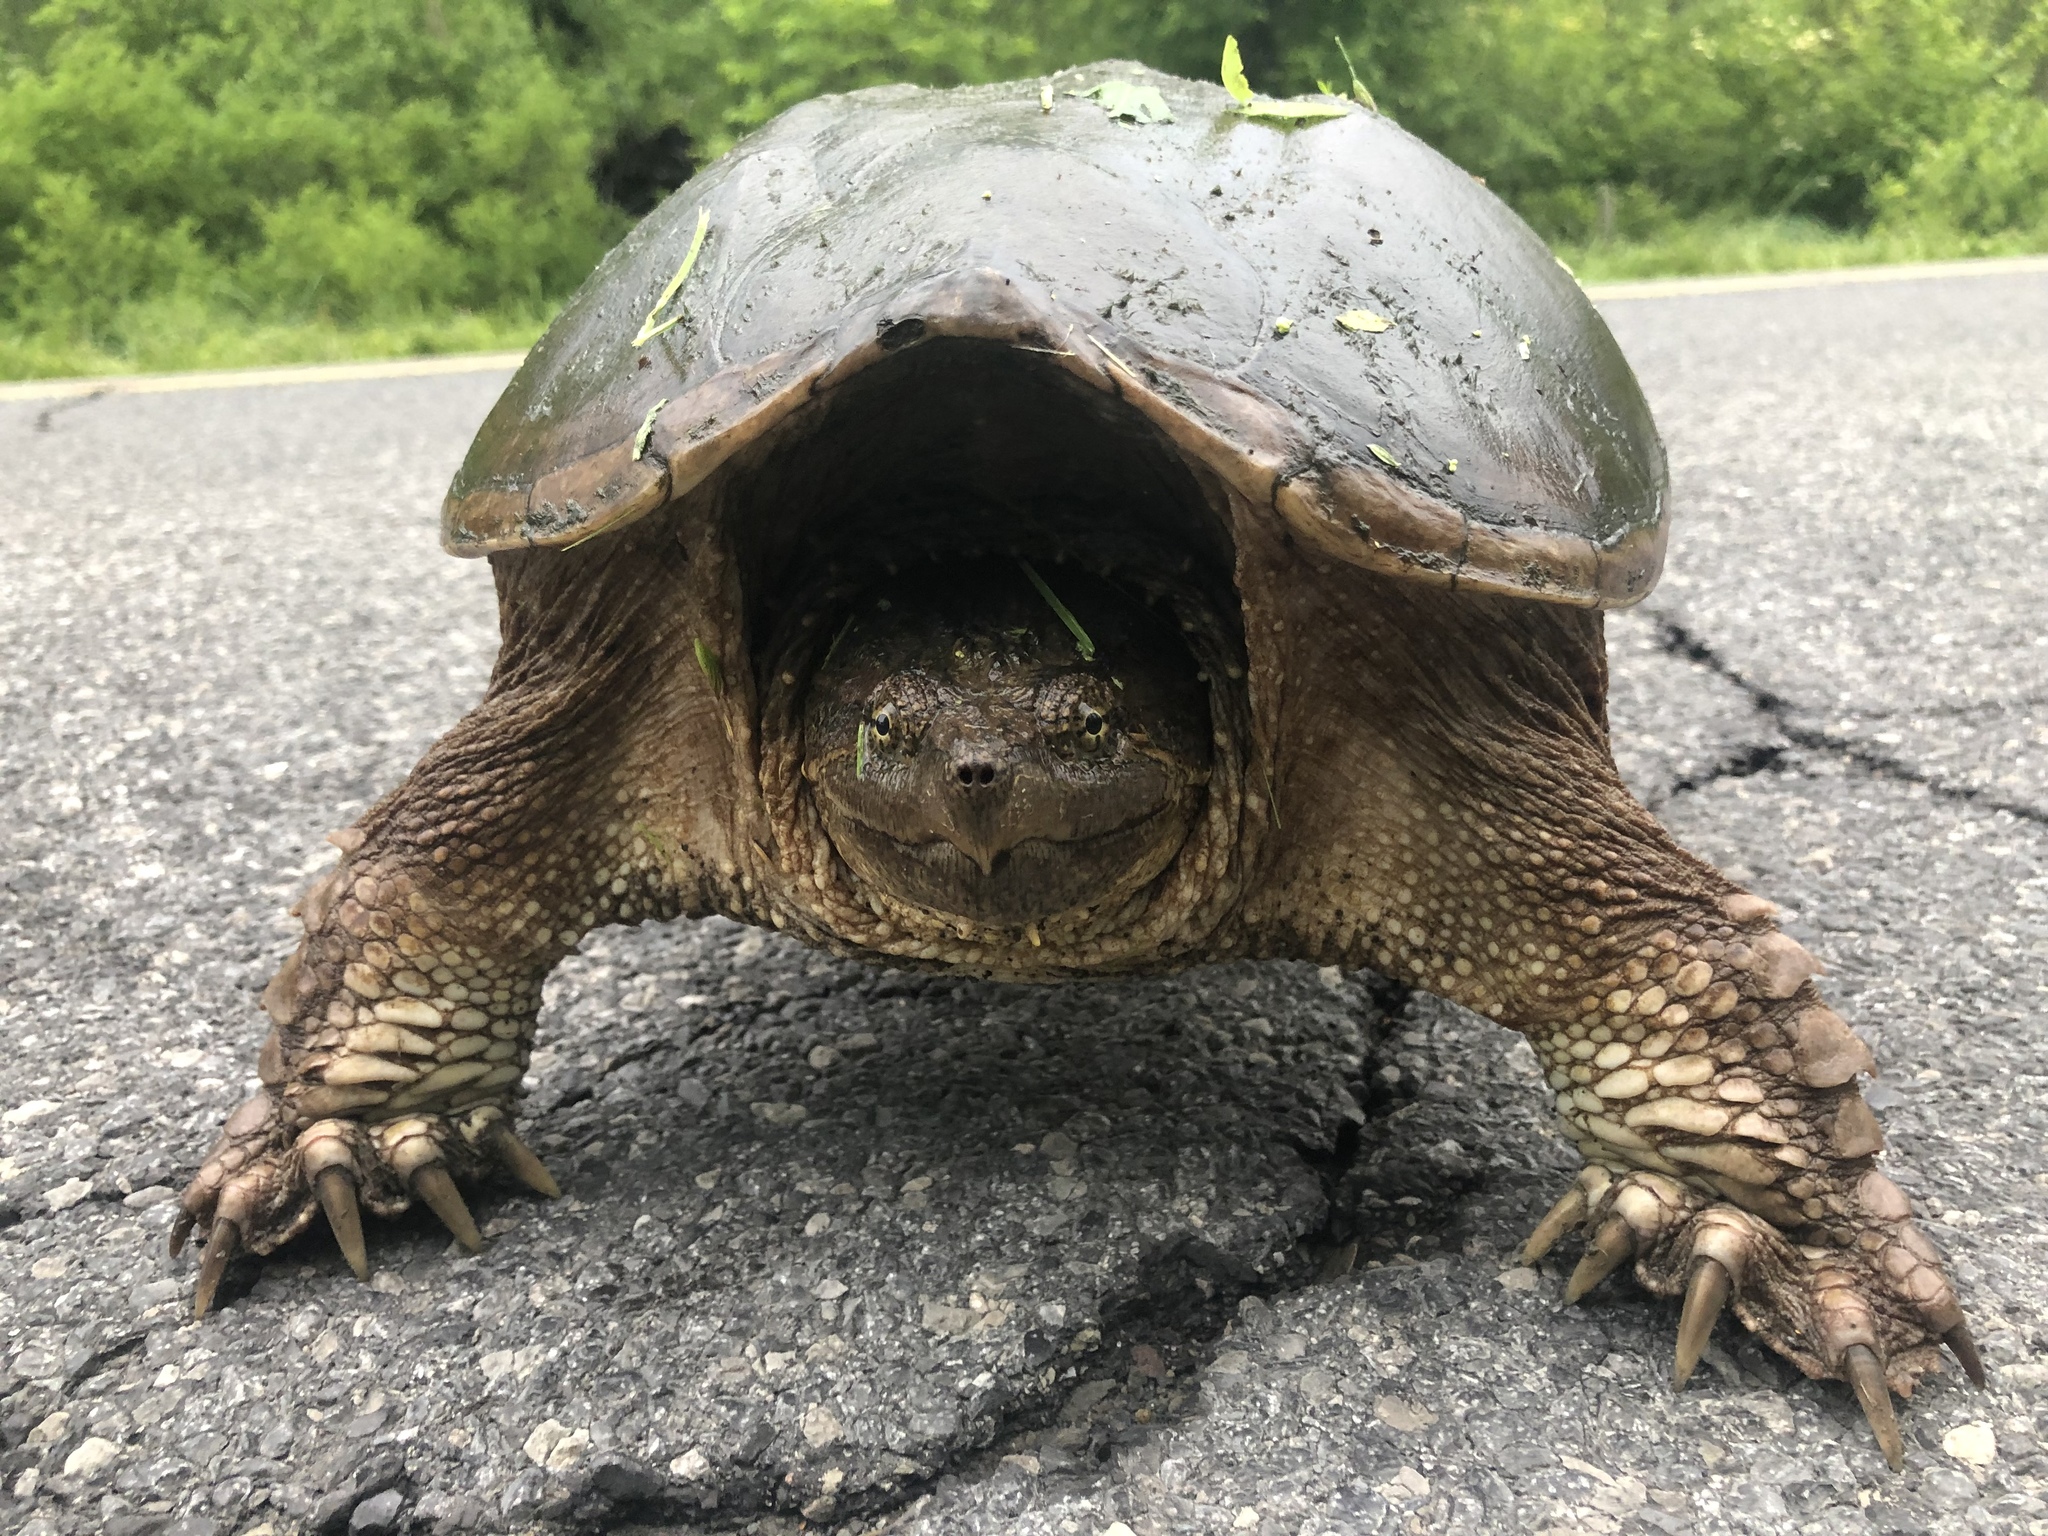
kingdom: Animalia
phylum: Chordata
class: Testudines
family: Chelydridae
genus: Chelydra
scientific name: Chelydra serpentina
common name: Common snapping turtle
